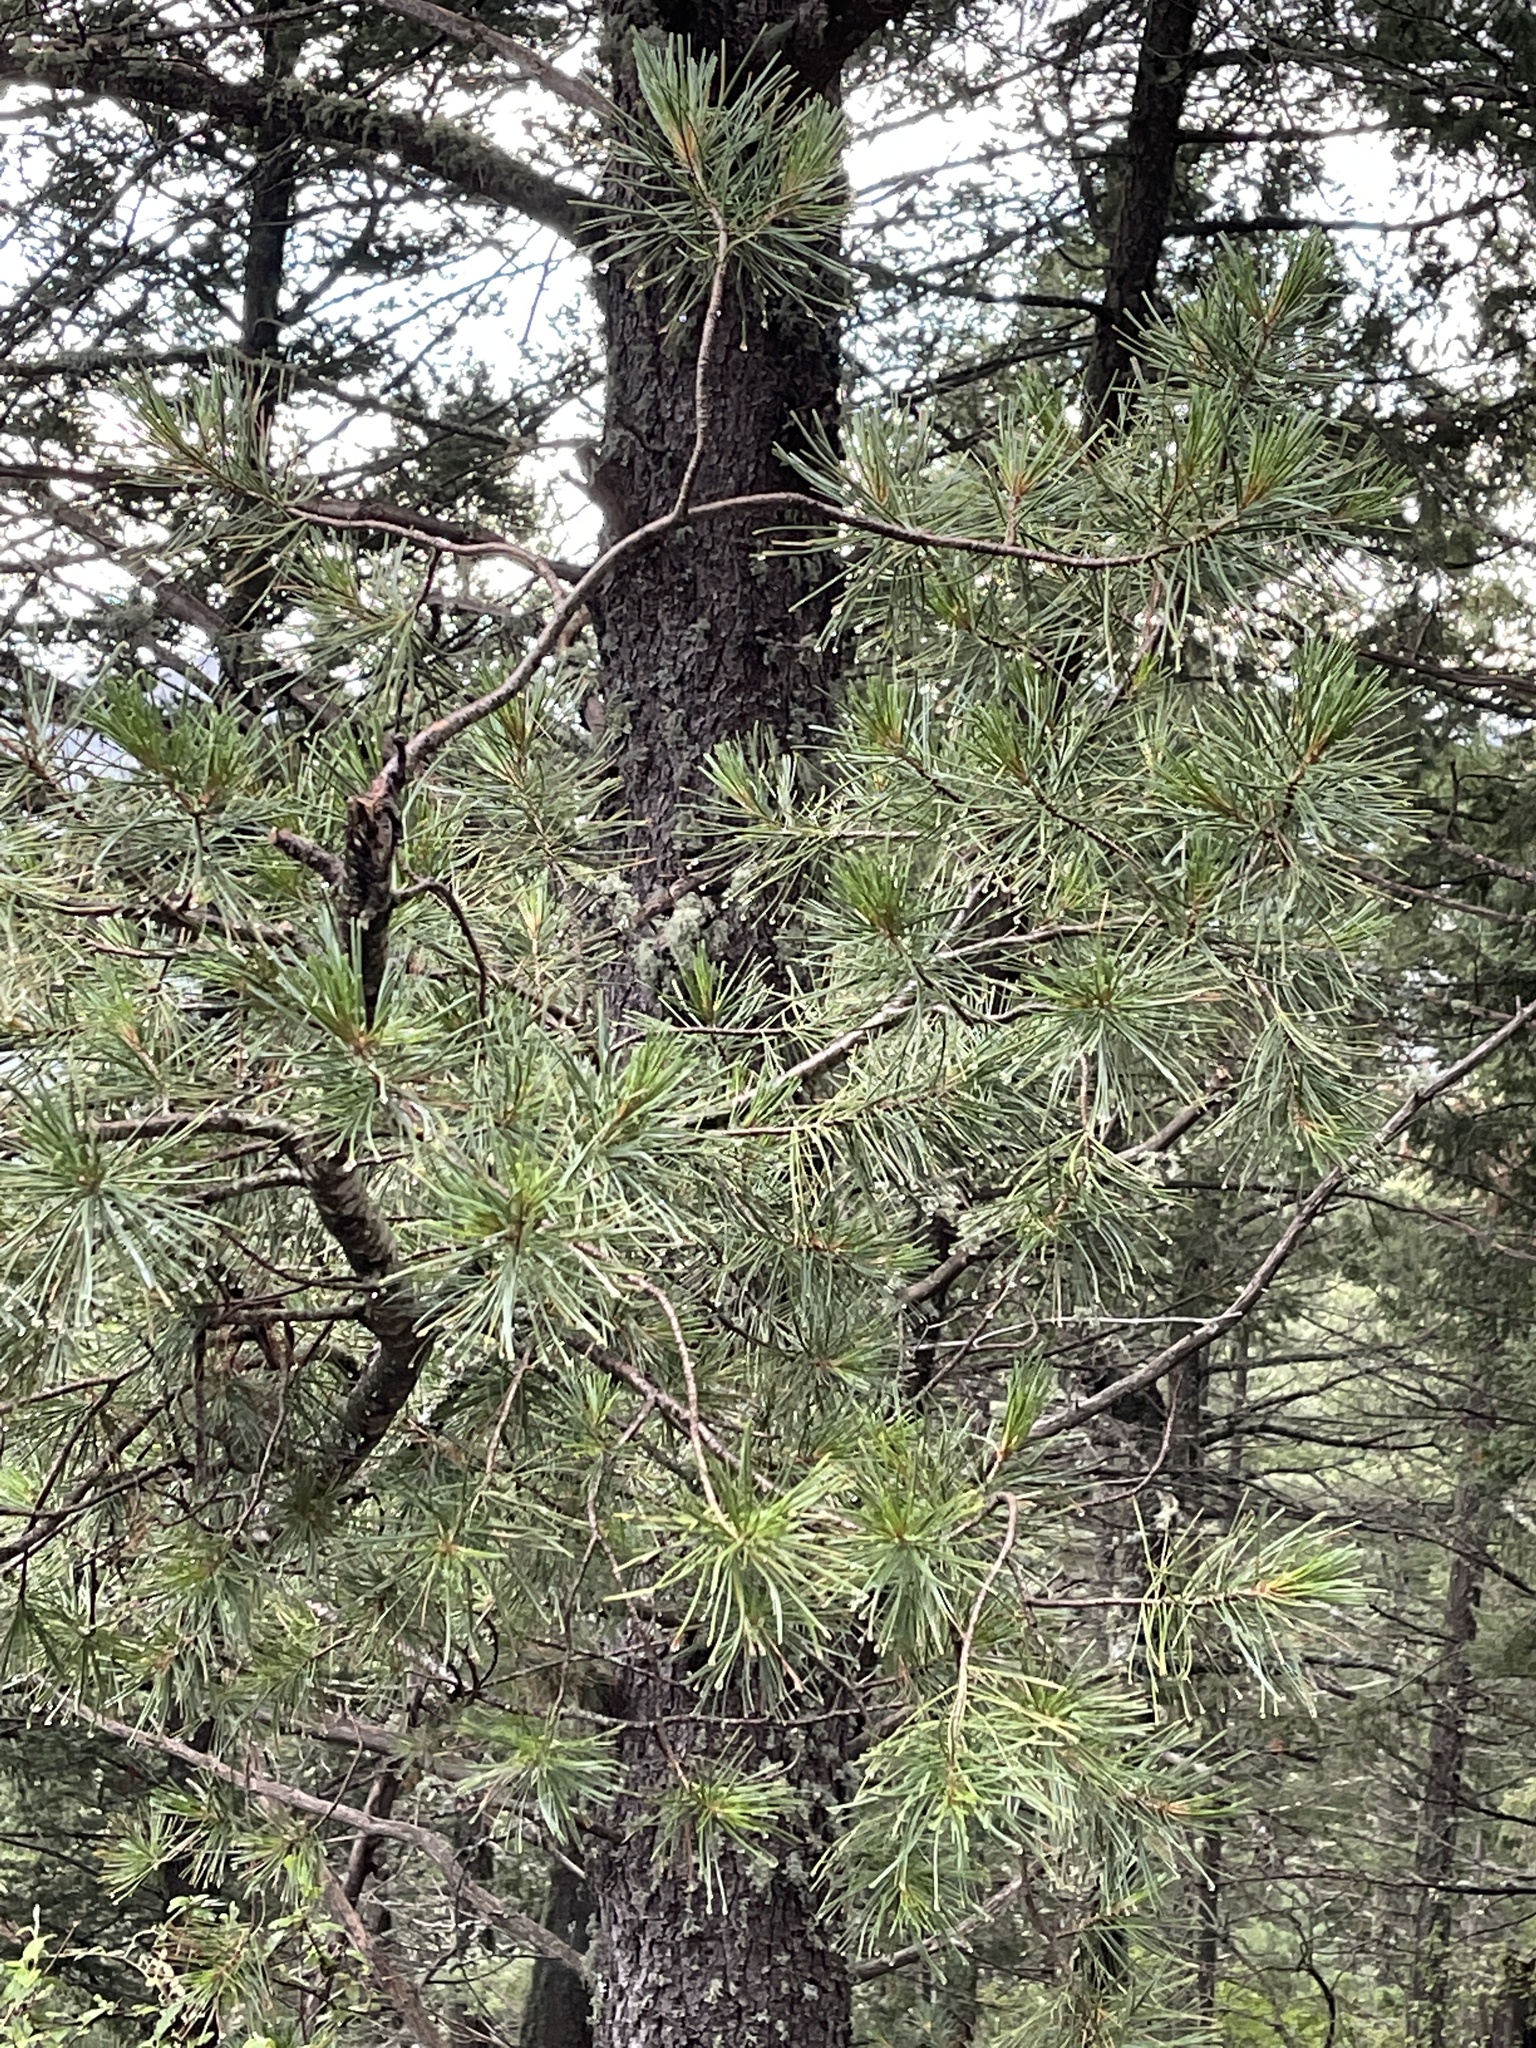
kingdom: Plantae
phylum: Tracheophyta
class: Pinopsida
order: Pinales
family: Pinaceae
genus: Pinus
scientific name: Pinus strobiformis
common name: Southwestern white pine
